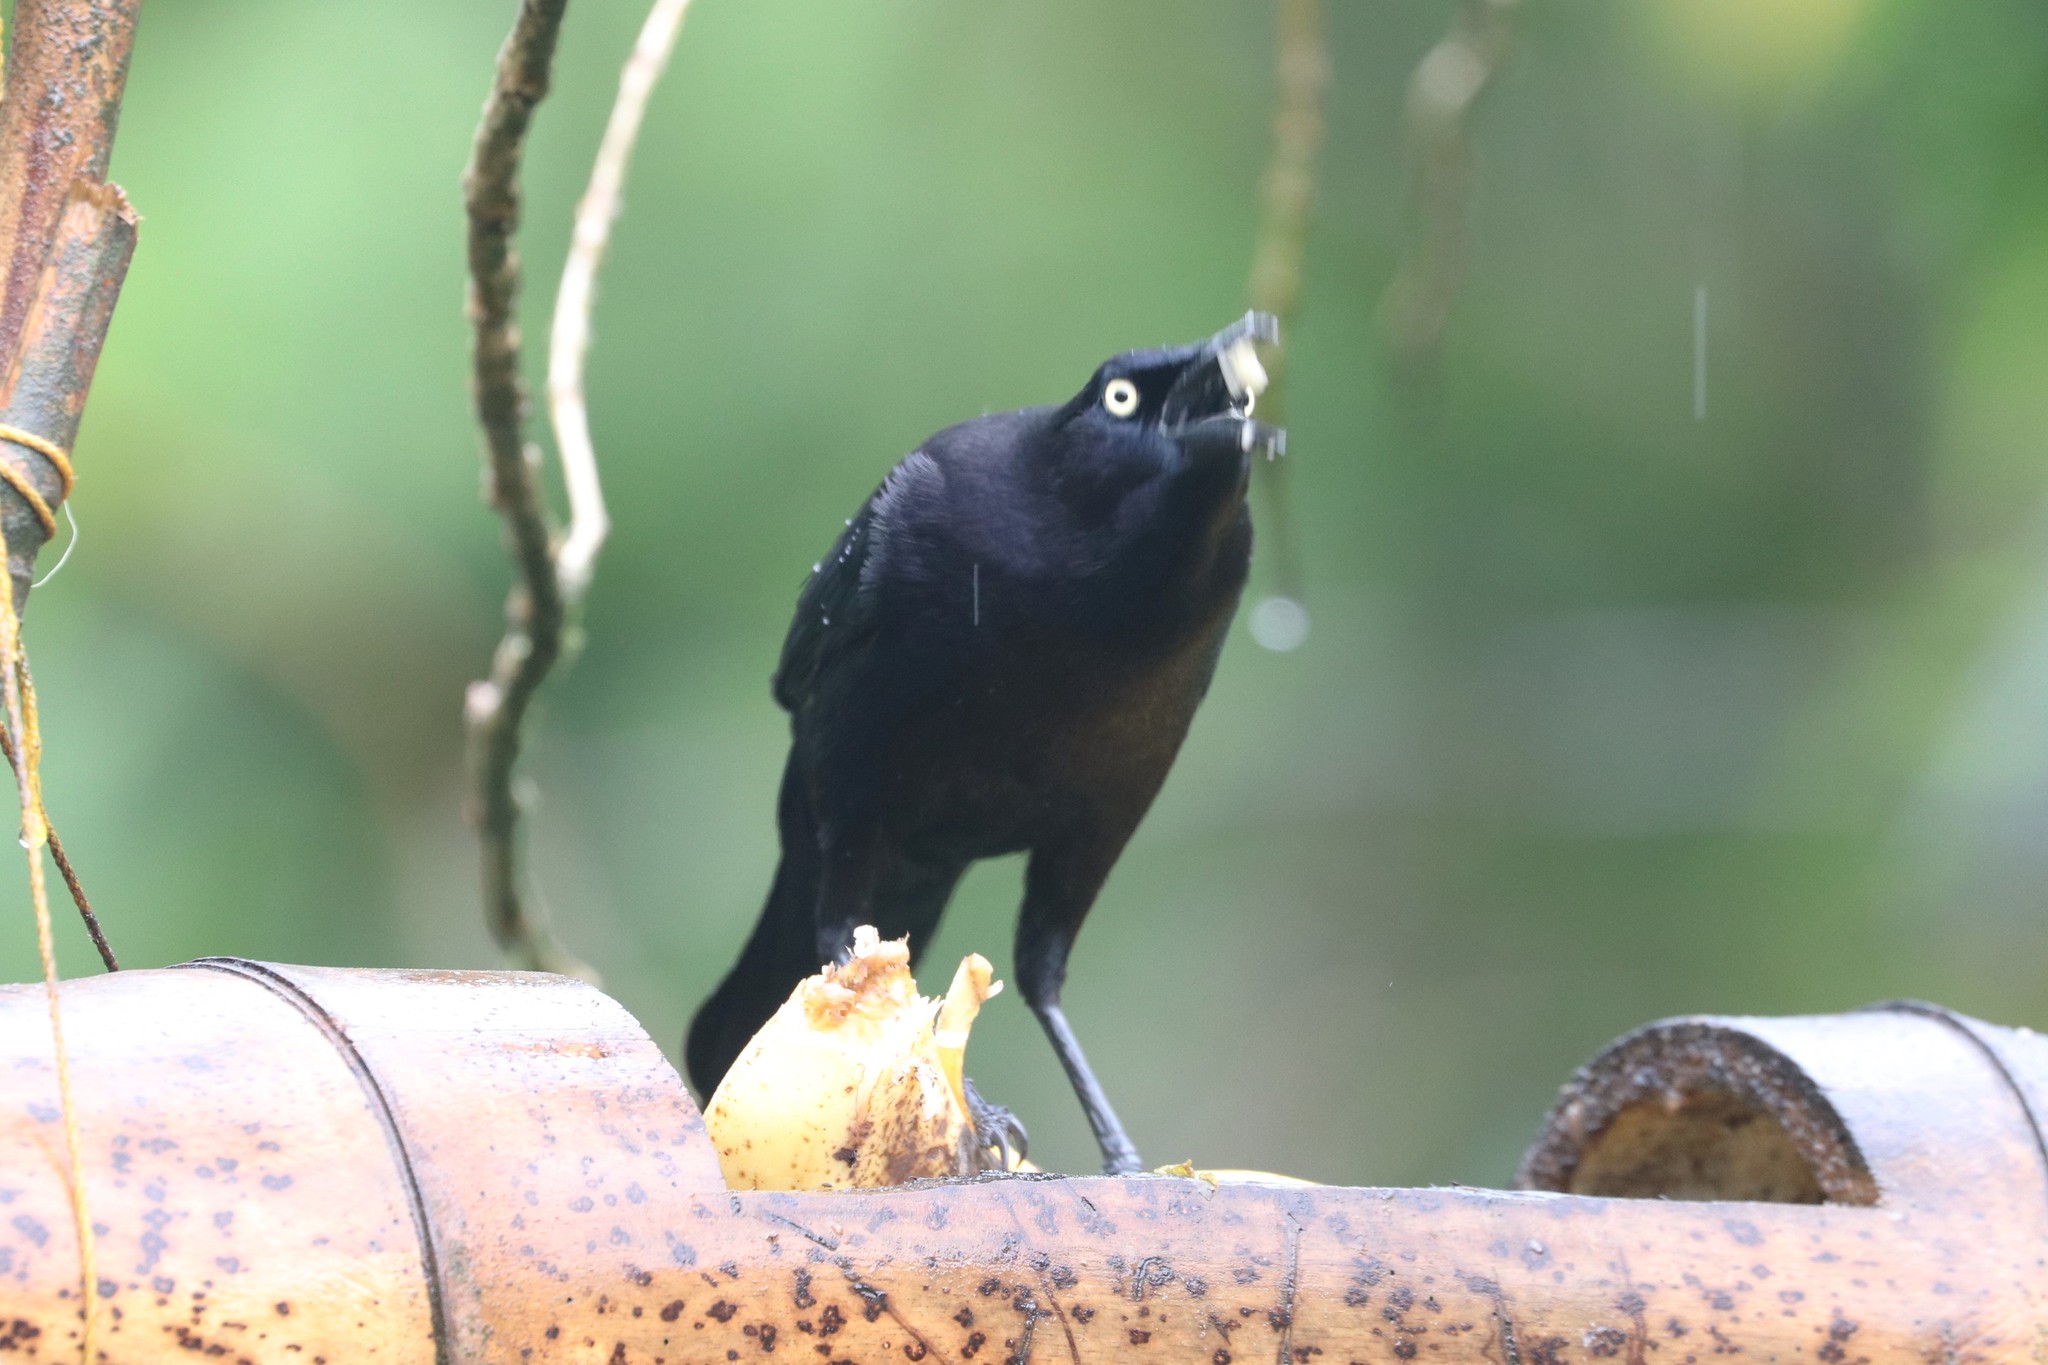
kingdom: Animalia
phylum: Chordata
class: Aves
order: Passeriformes
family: Icteridae
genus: Quiscalus
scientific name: Quiscalus lugubris
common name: Carib grackle
